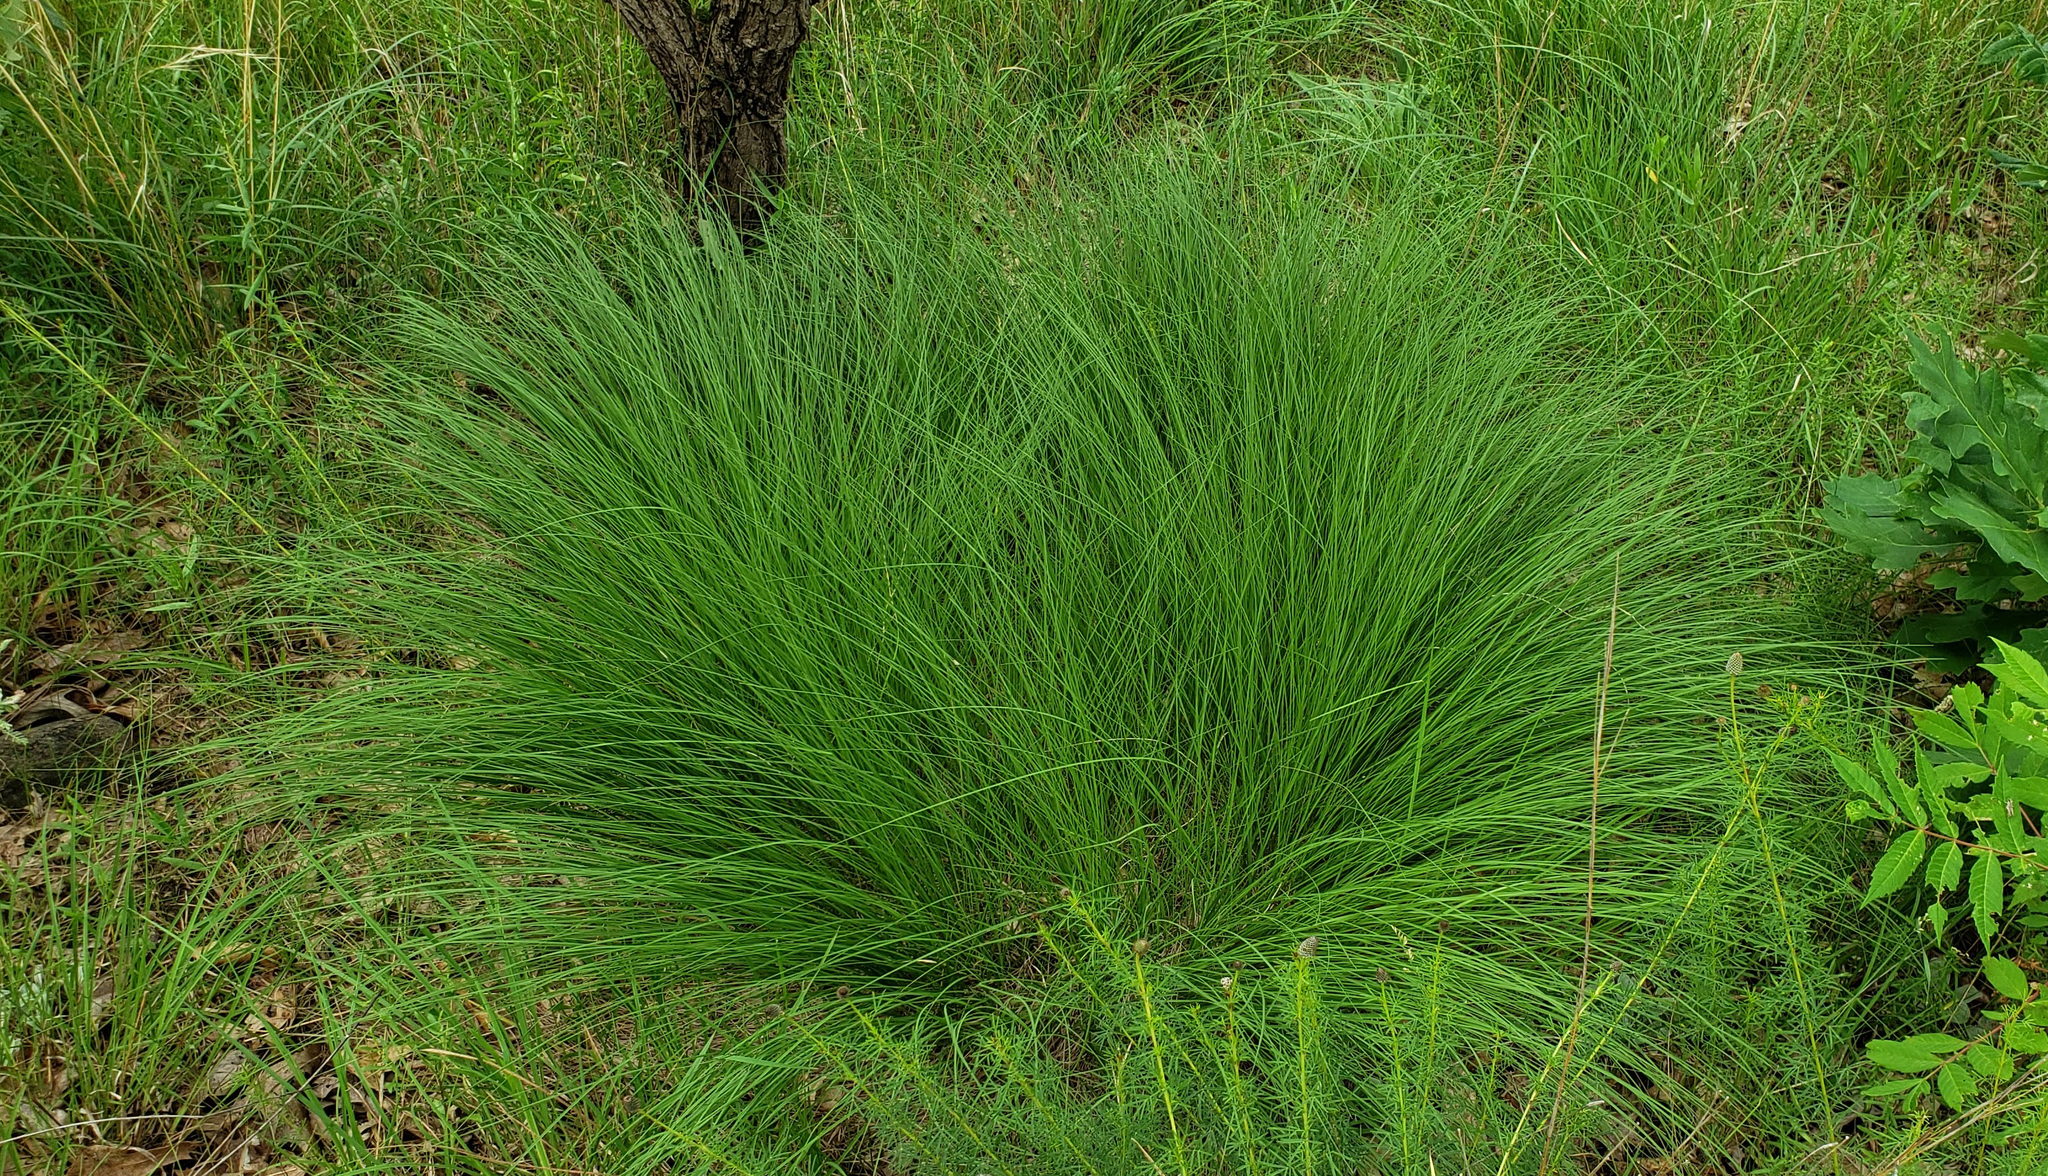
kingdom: Plantae
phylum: Tracheophyta
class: Liliopsida
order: Poales
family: Poaceae
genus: Sporobolus
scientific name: Sporobolus heterolepis
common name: Prairie dropseed
